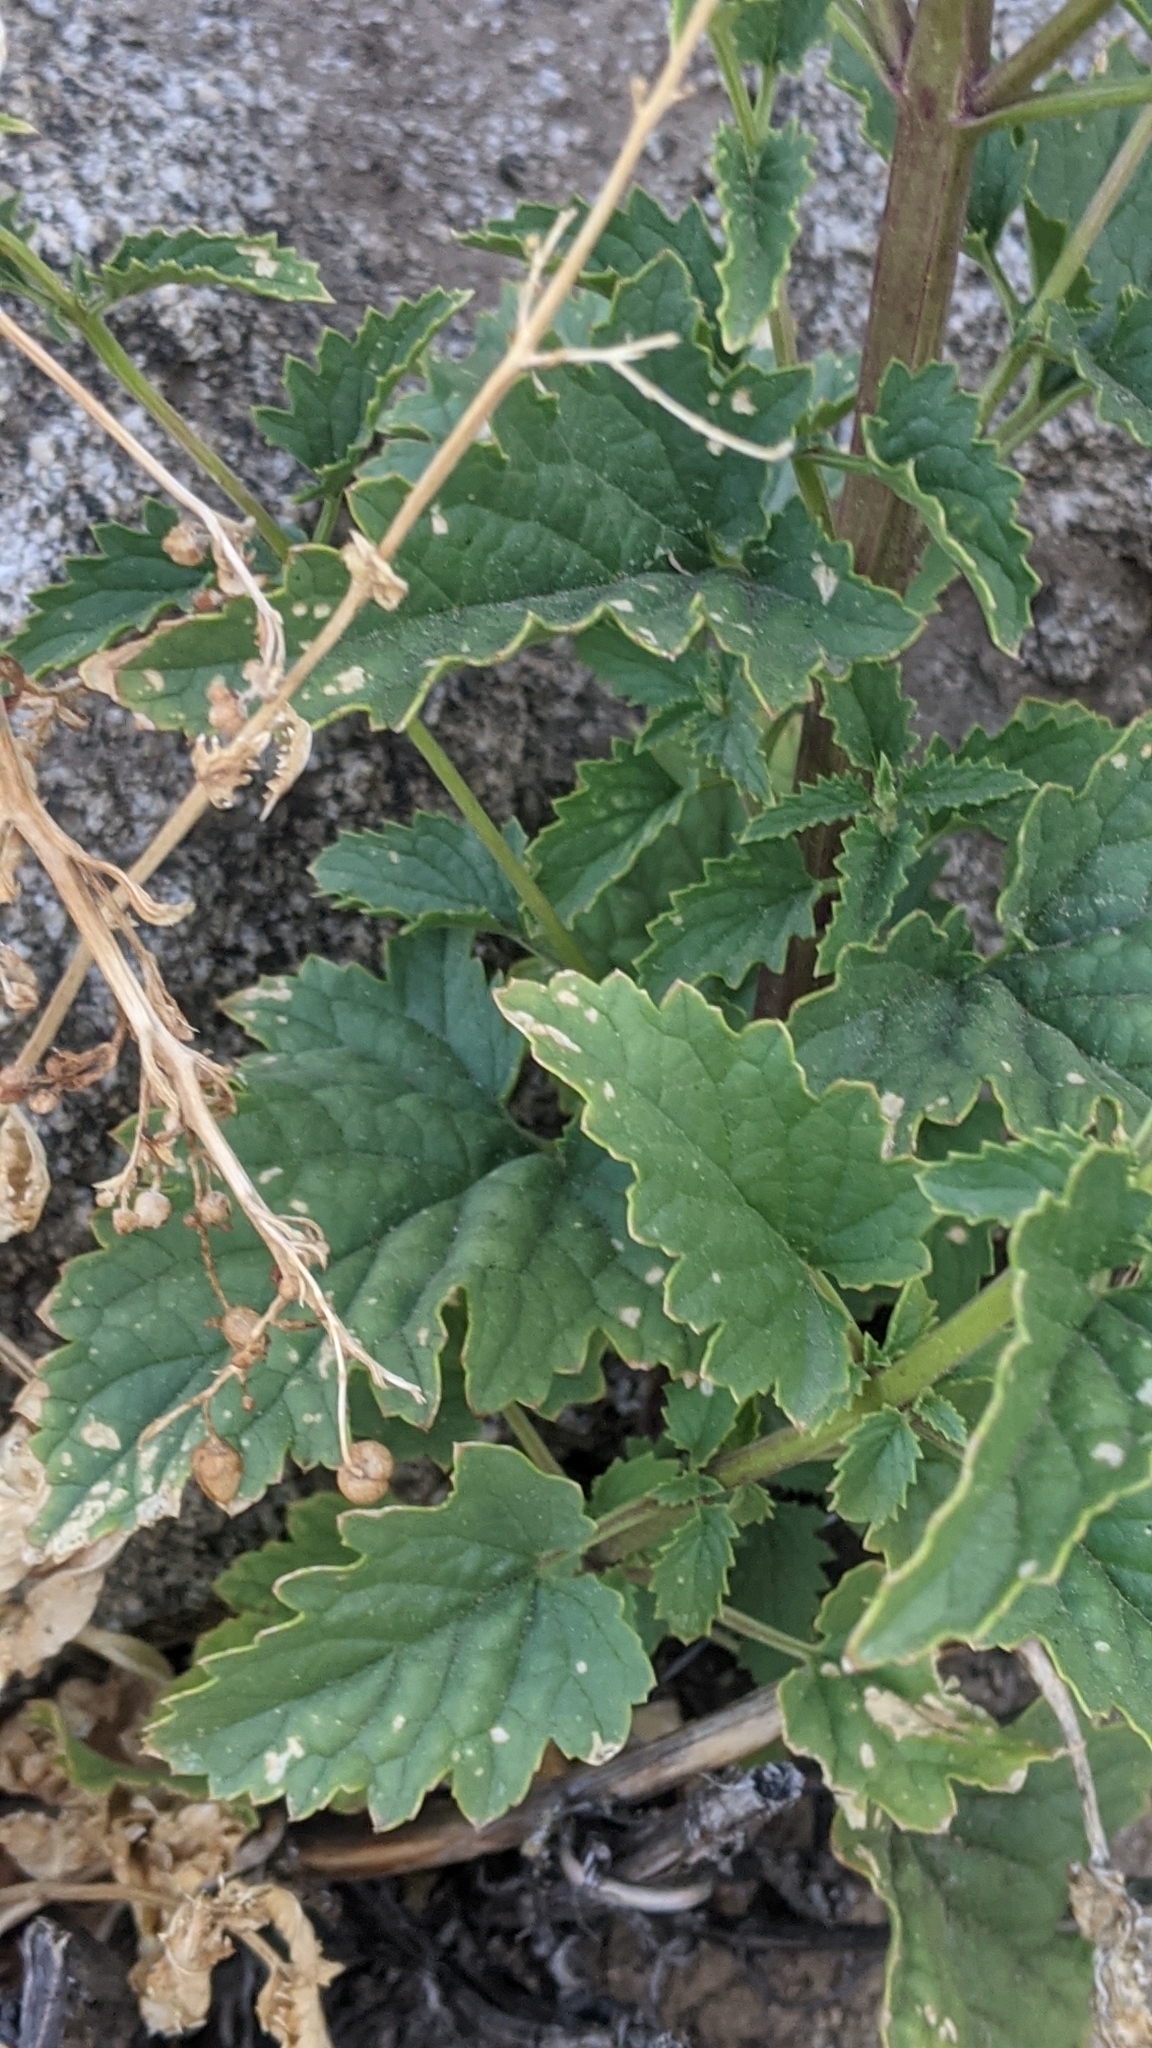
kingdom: Plantae
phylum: Tracheophyta
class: Magnoliopsida
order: Lamiales
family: Scrophulariaceae
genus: Scrophularia
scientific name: Scrophularia californica
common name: California figwort
